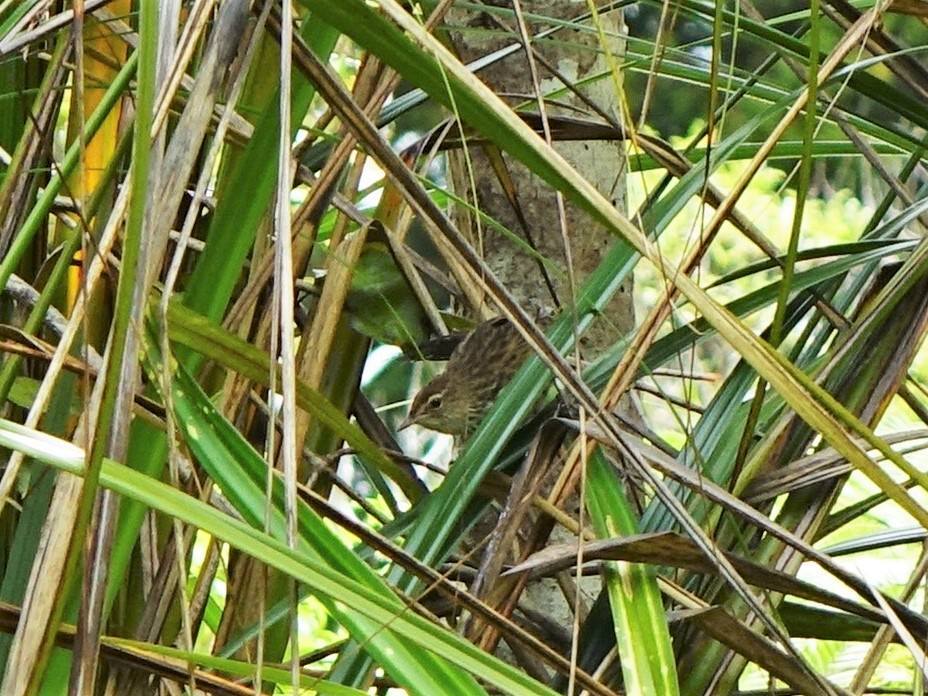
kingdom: Animalia
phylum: Chordata
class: Aves
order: Passeriformes
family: Locustellidae
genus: Megalurus
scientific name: Megalurus punctatus
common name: New zealand fernbird
